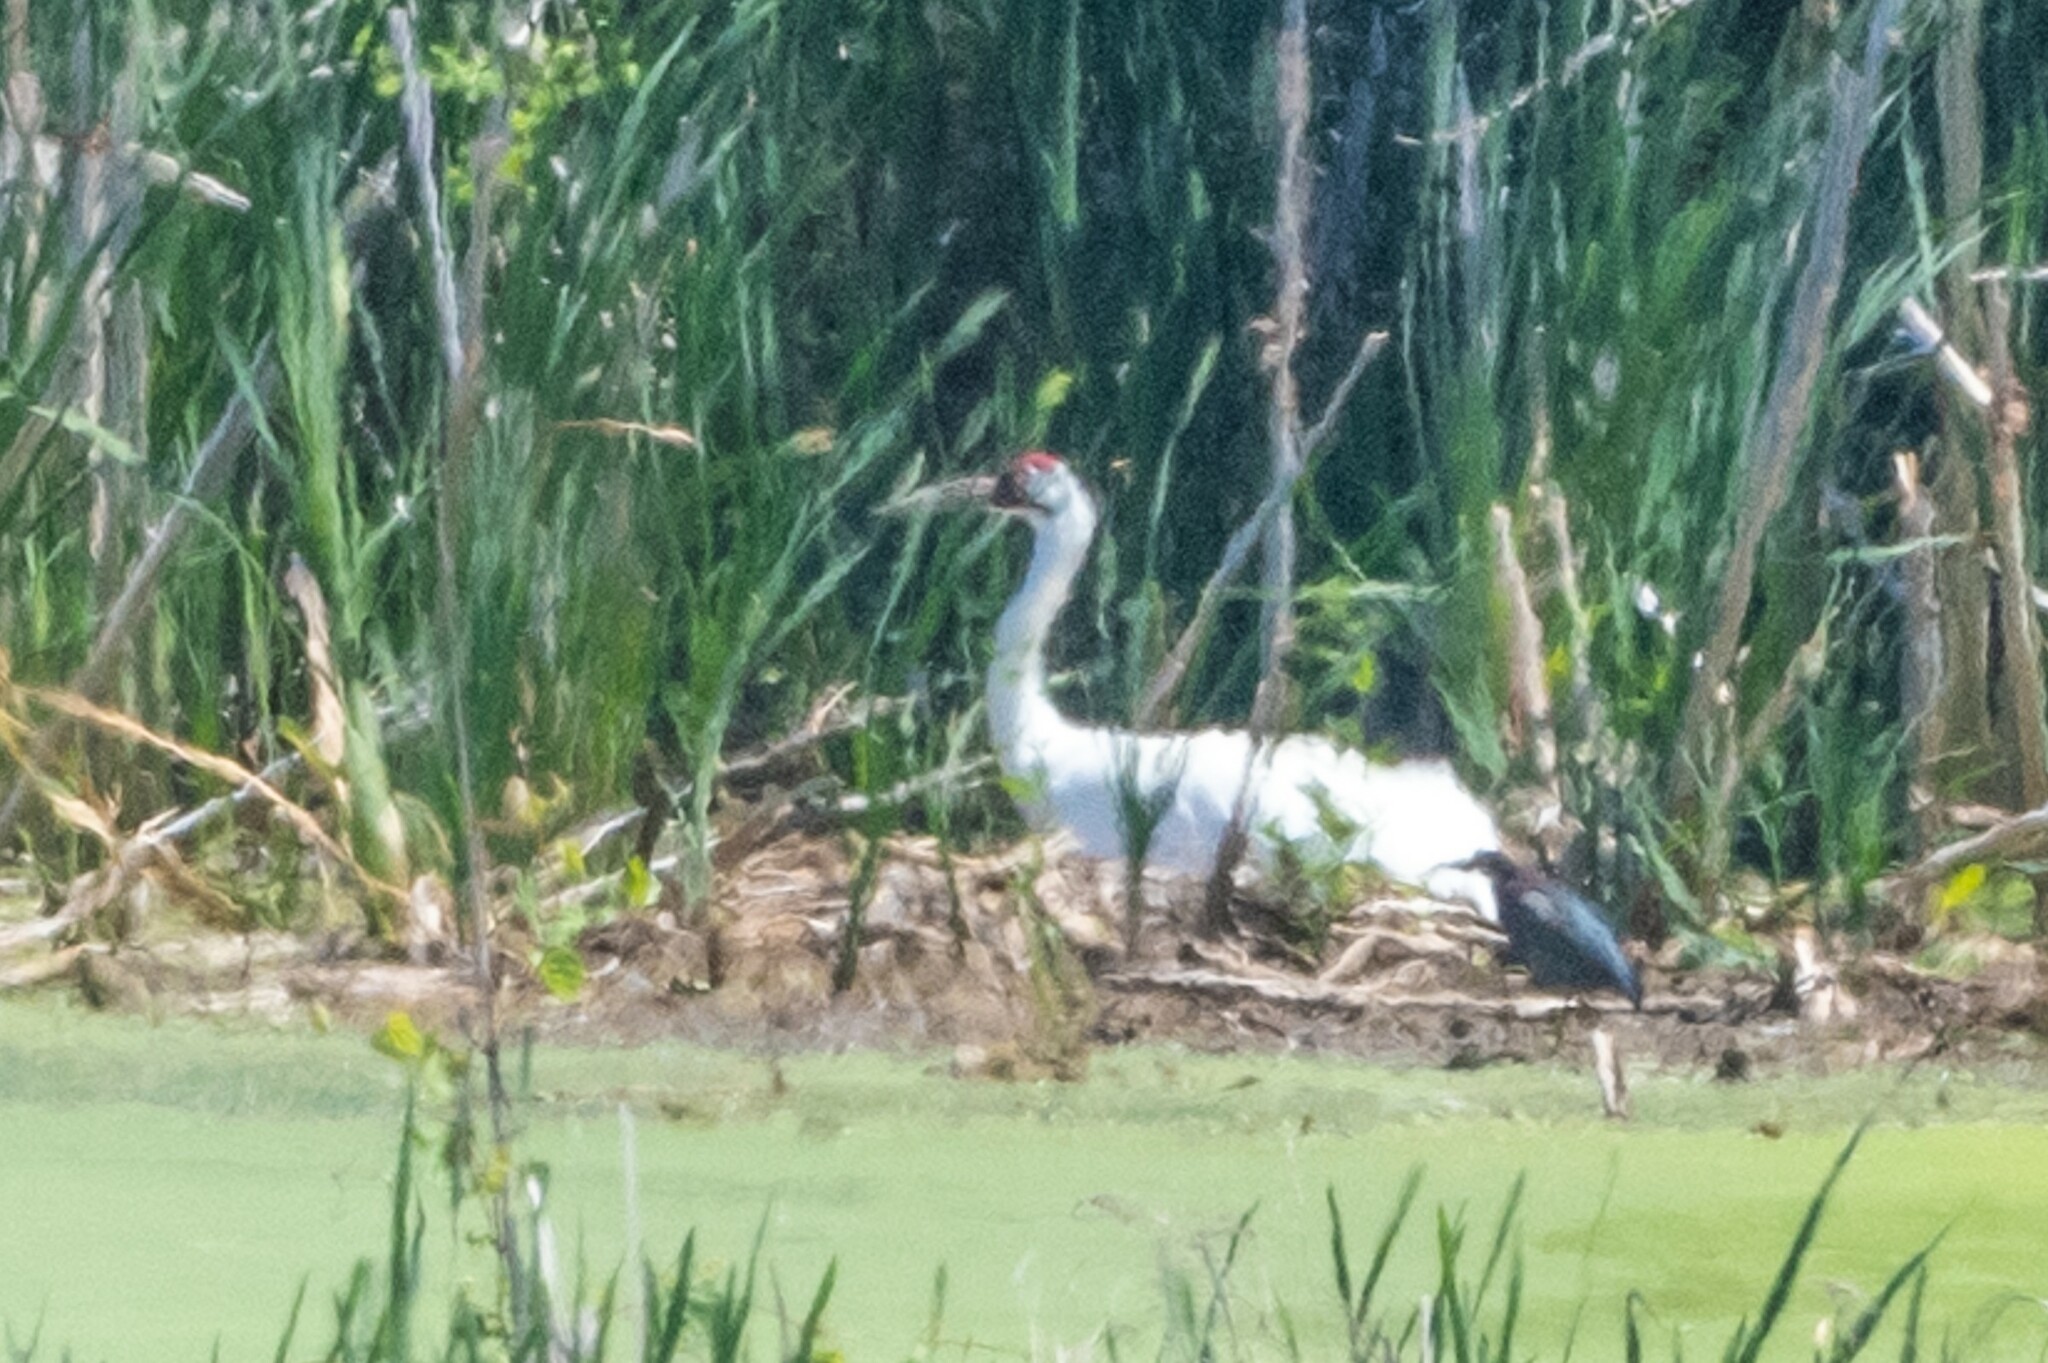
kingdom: Animalia
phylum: Chordata
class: Aves
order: Gruiformes
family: Gruidae
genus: Grus
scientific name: Grus americana
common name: Whooping crane
